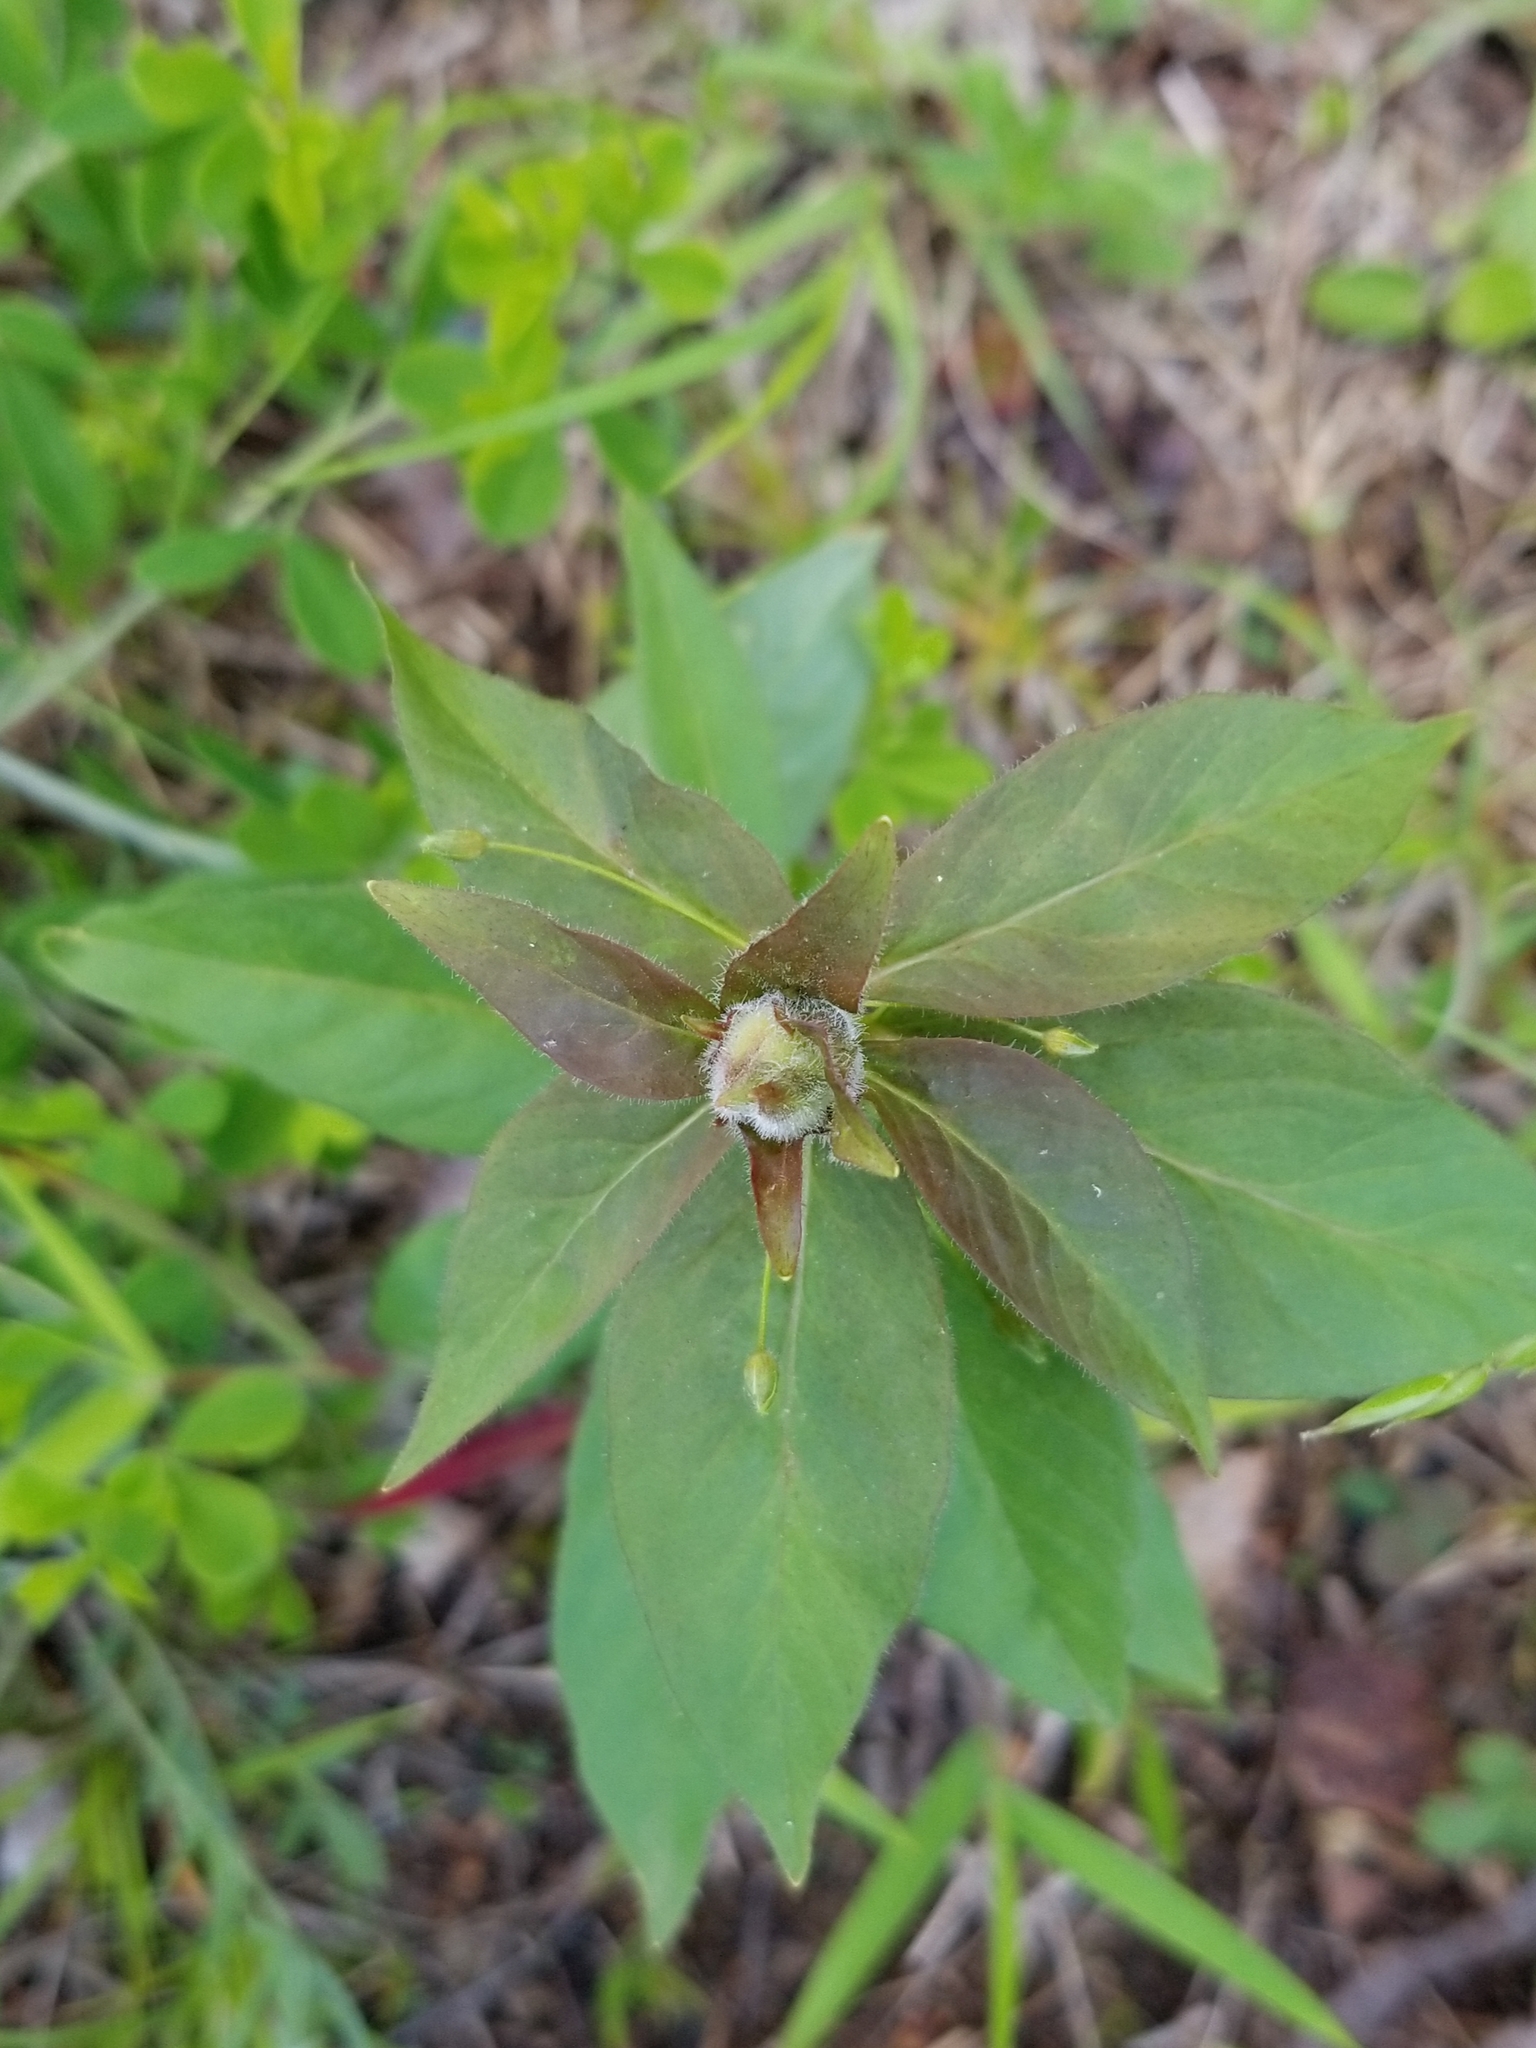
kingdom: Plantae
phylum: Tracheophyta
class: Magnoliopsida
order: Ericales
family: Primulaceae
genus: Lysimachia
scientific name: Lysimachia quadrifolia
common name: Whorled loosestrife
